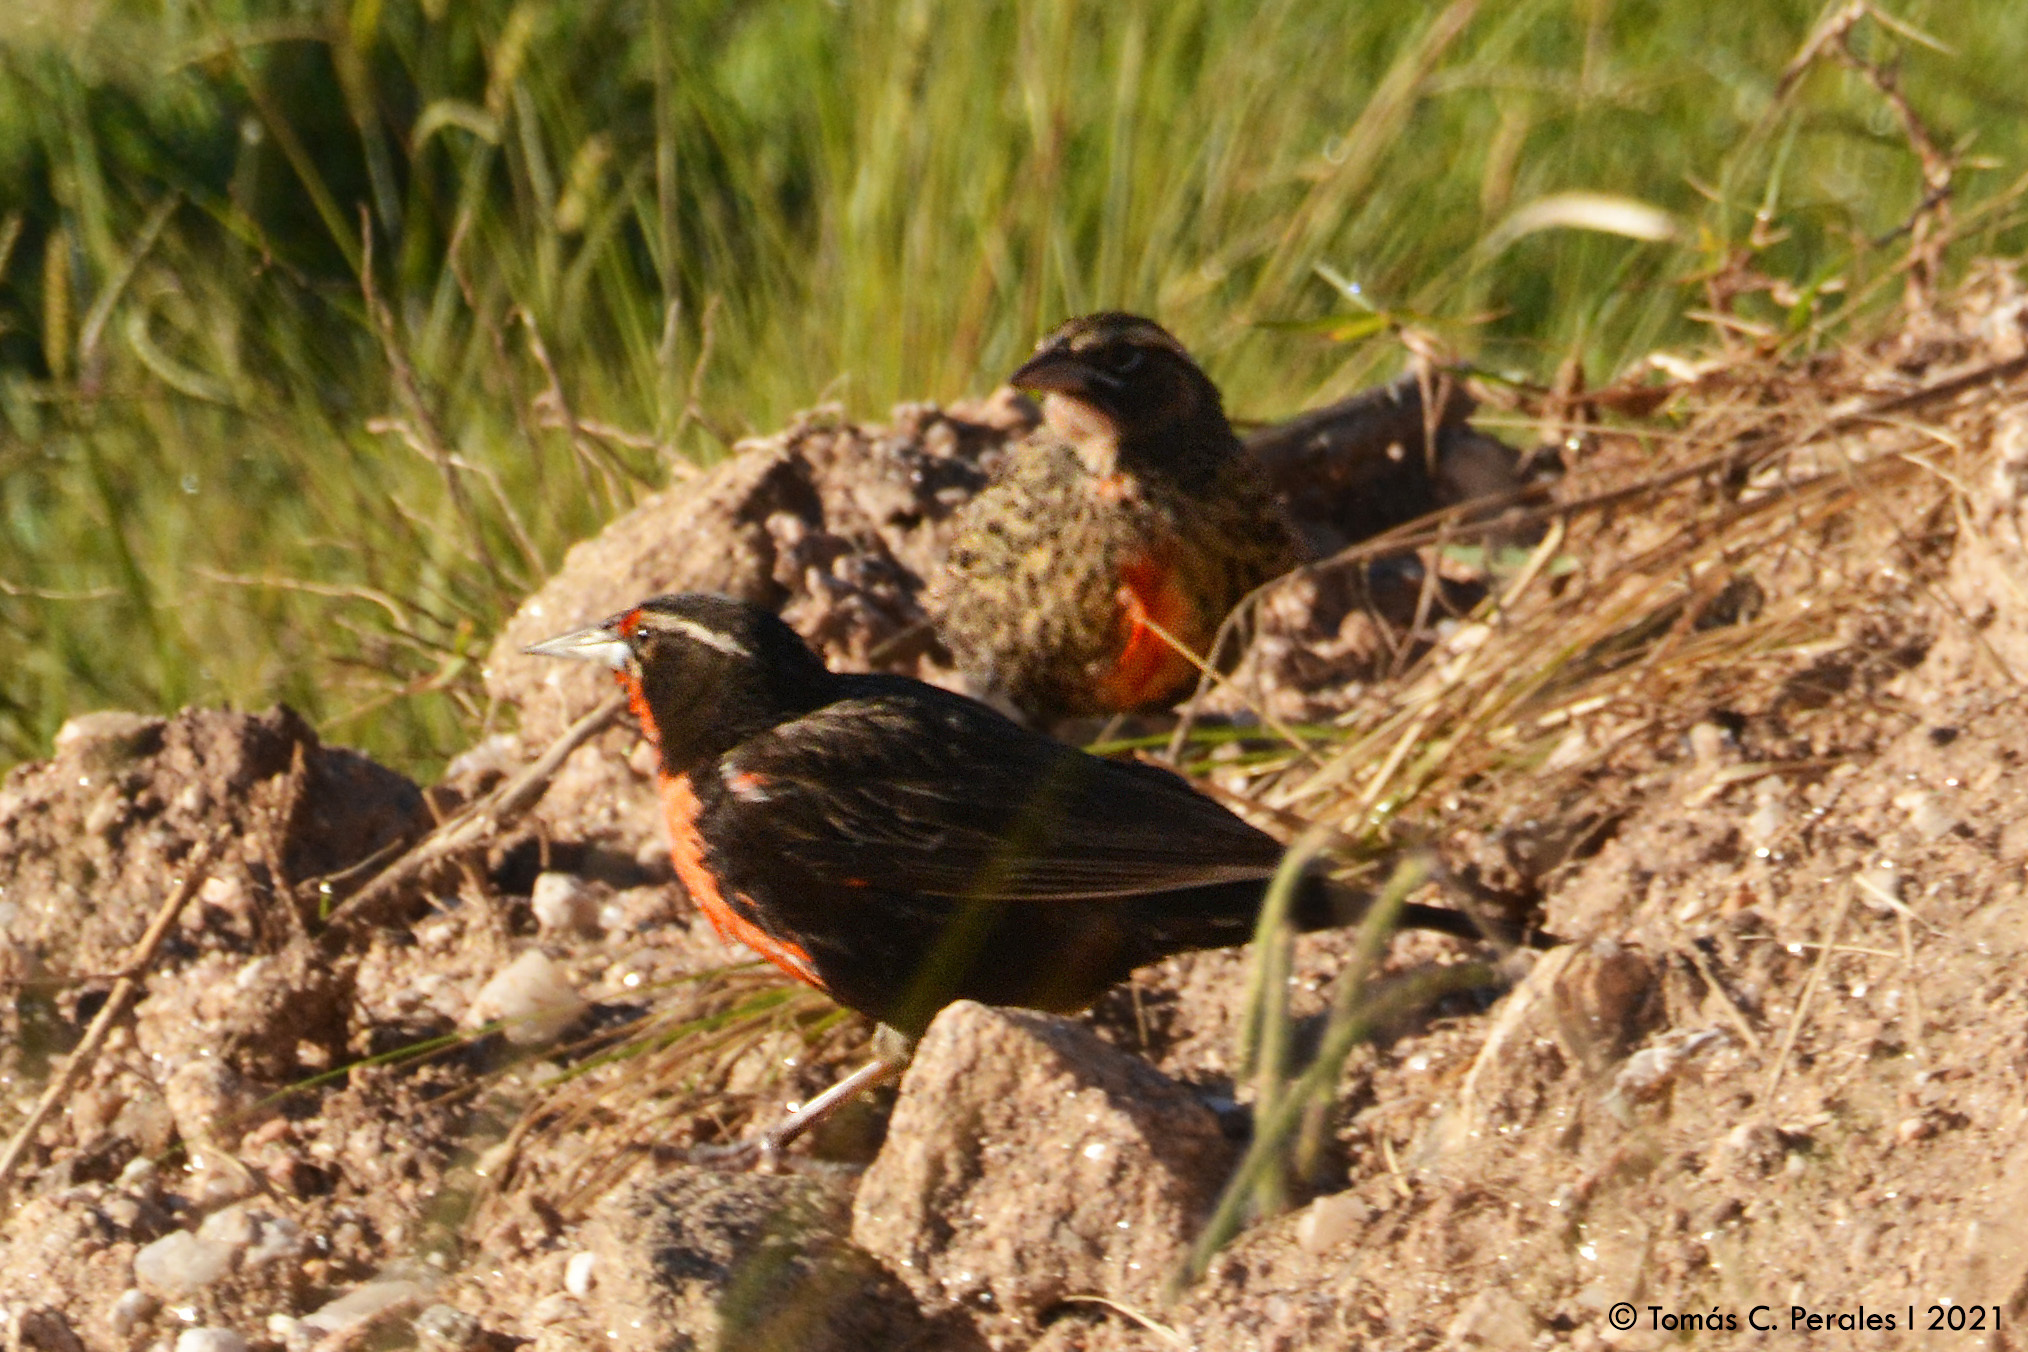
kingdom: Animalia
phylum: Chordata
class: Aves
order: Passeriformes
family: Icteridae
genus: Sturnella
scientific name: Sturnella loyca
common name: Long-tailed meadowlark
